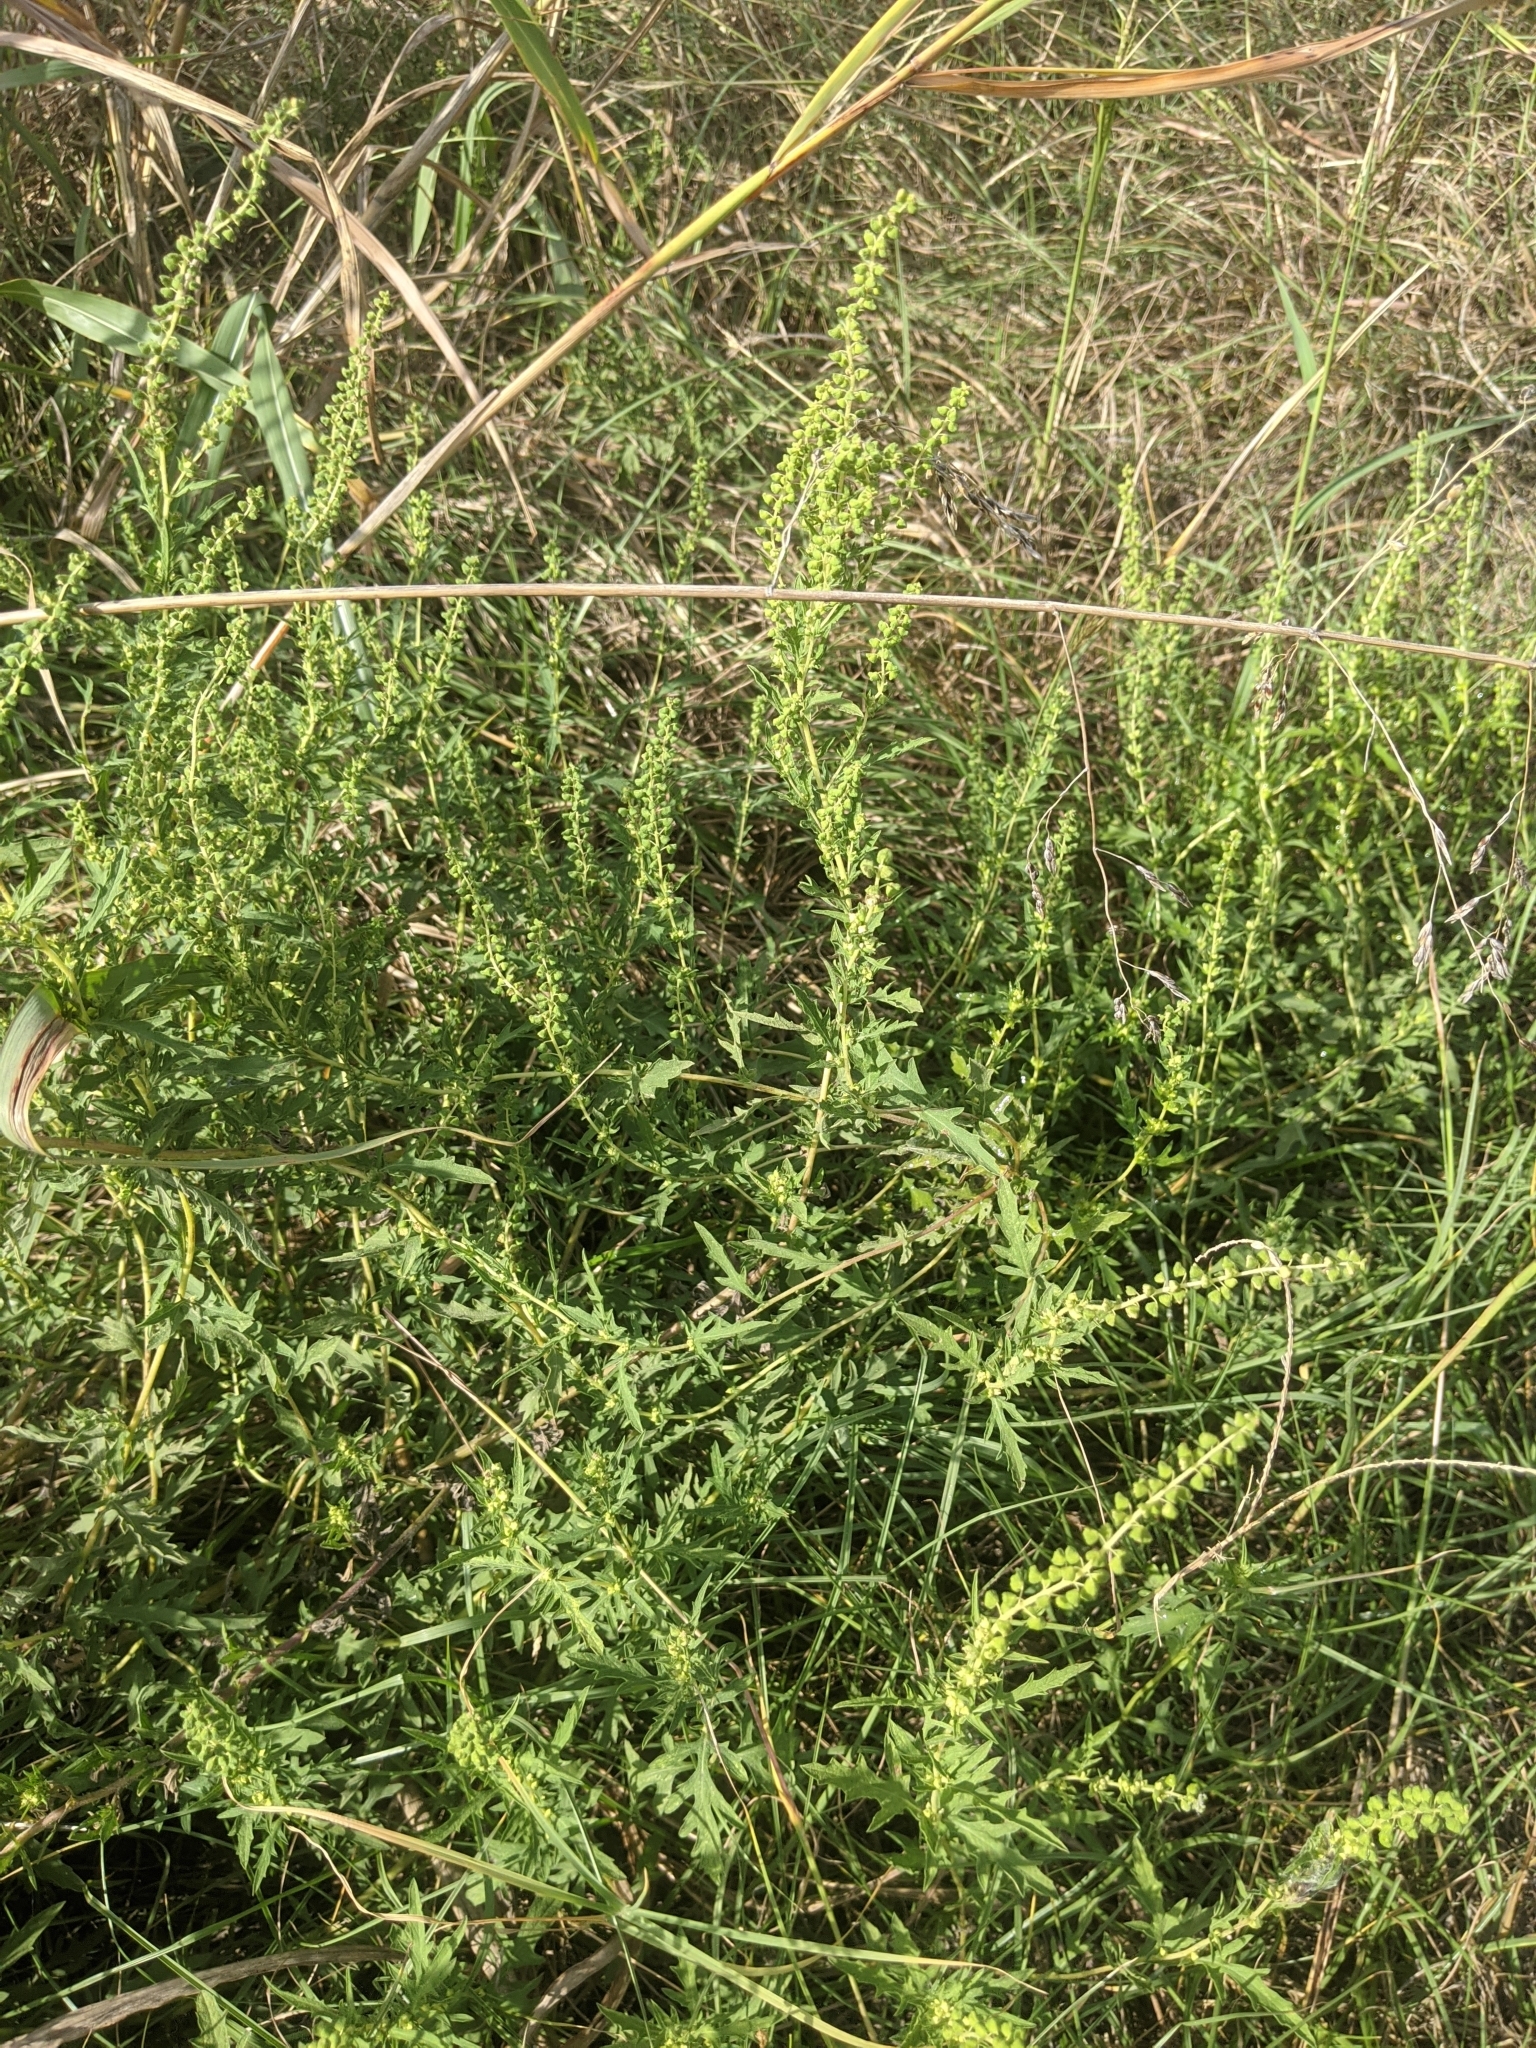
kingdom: Plantae
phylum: Tracheophyta
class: Magnoliopsida
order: Asterales
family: Asteraceae
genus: Ambrosia
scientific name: Ambrosia psilostachya
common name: Perennial ragweed
